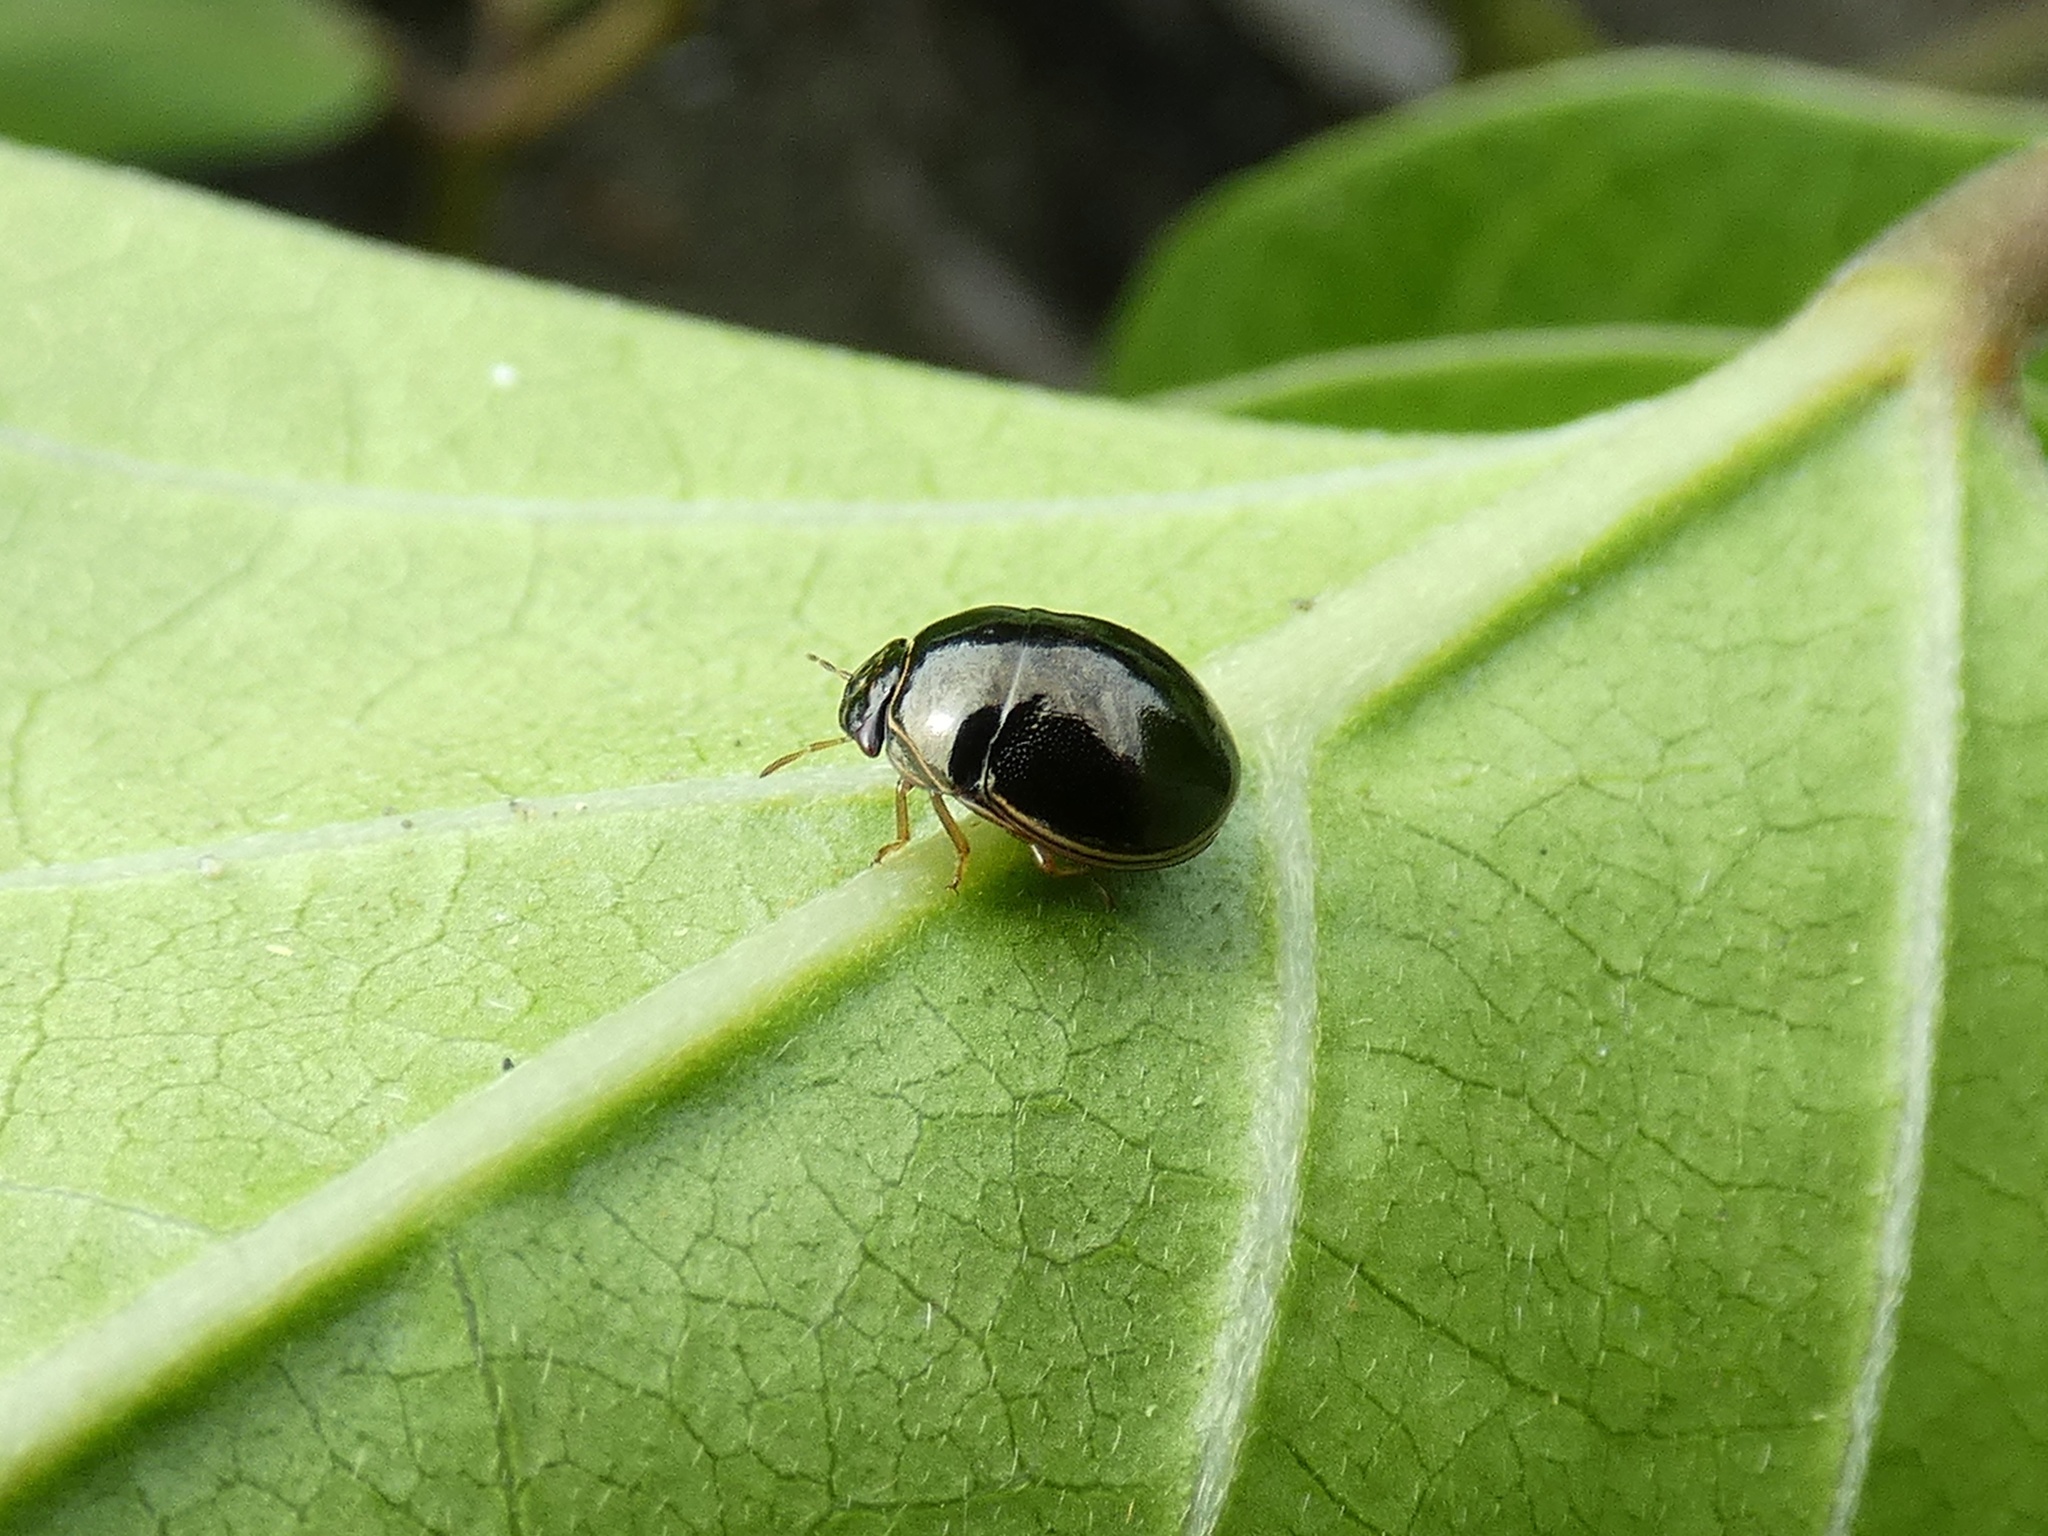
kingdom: Animalia
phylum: Arthropoda
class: Insecta
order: Hemiptera
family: Plataspidae
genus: Brachyplatys
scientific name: Brachyplatys subaeneus
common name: Black bean bug
